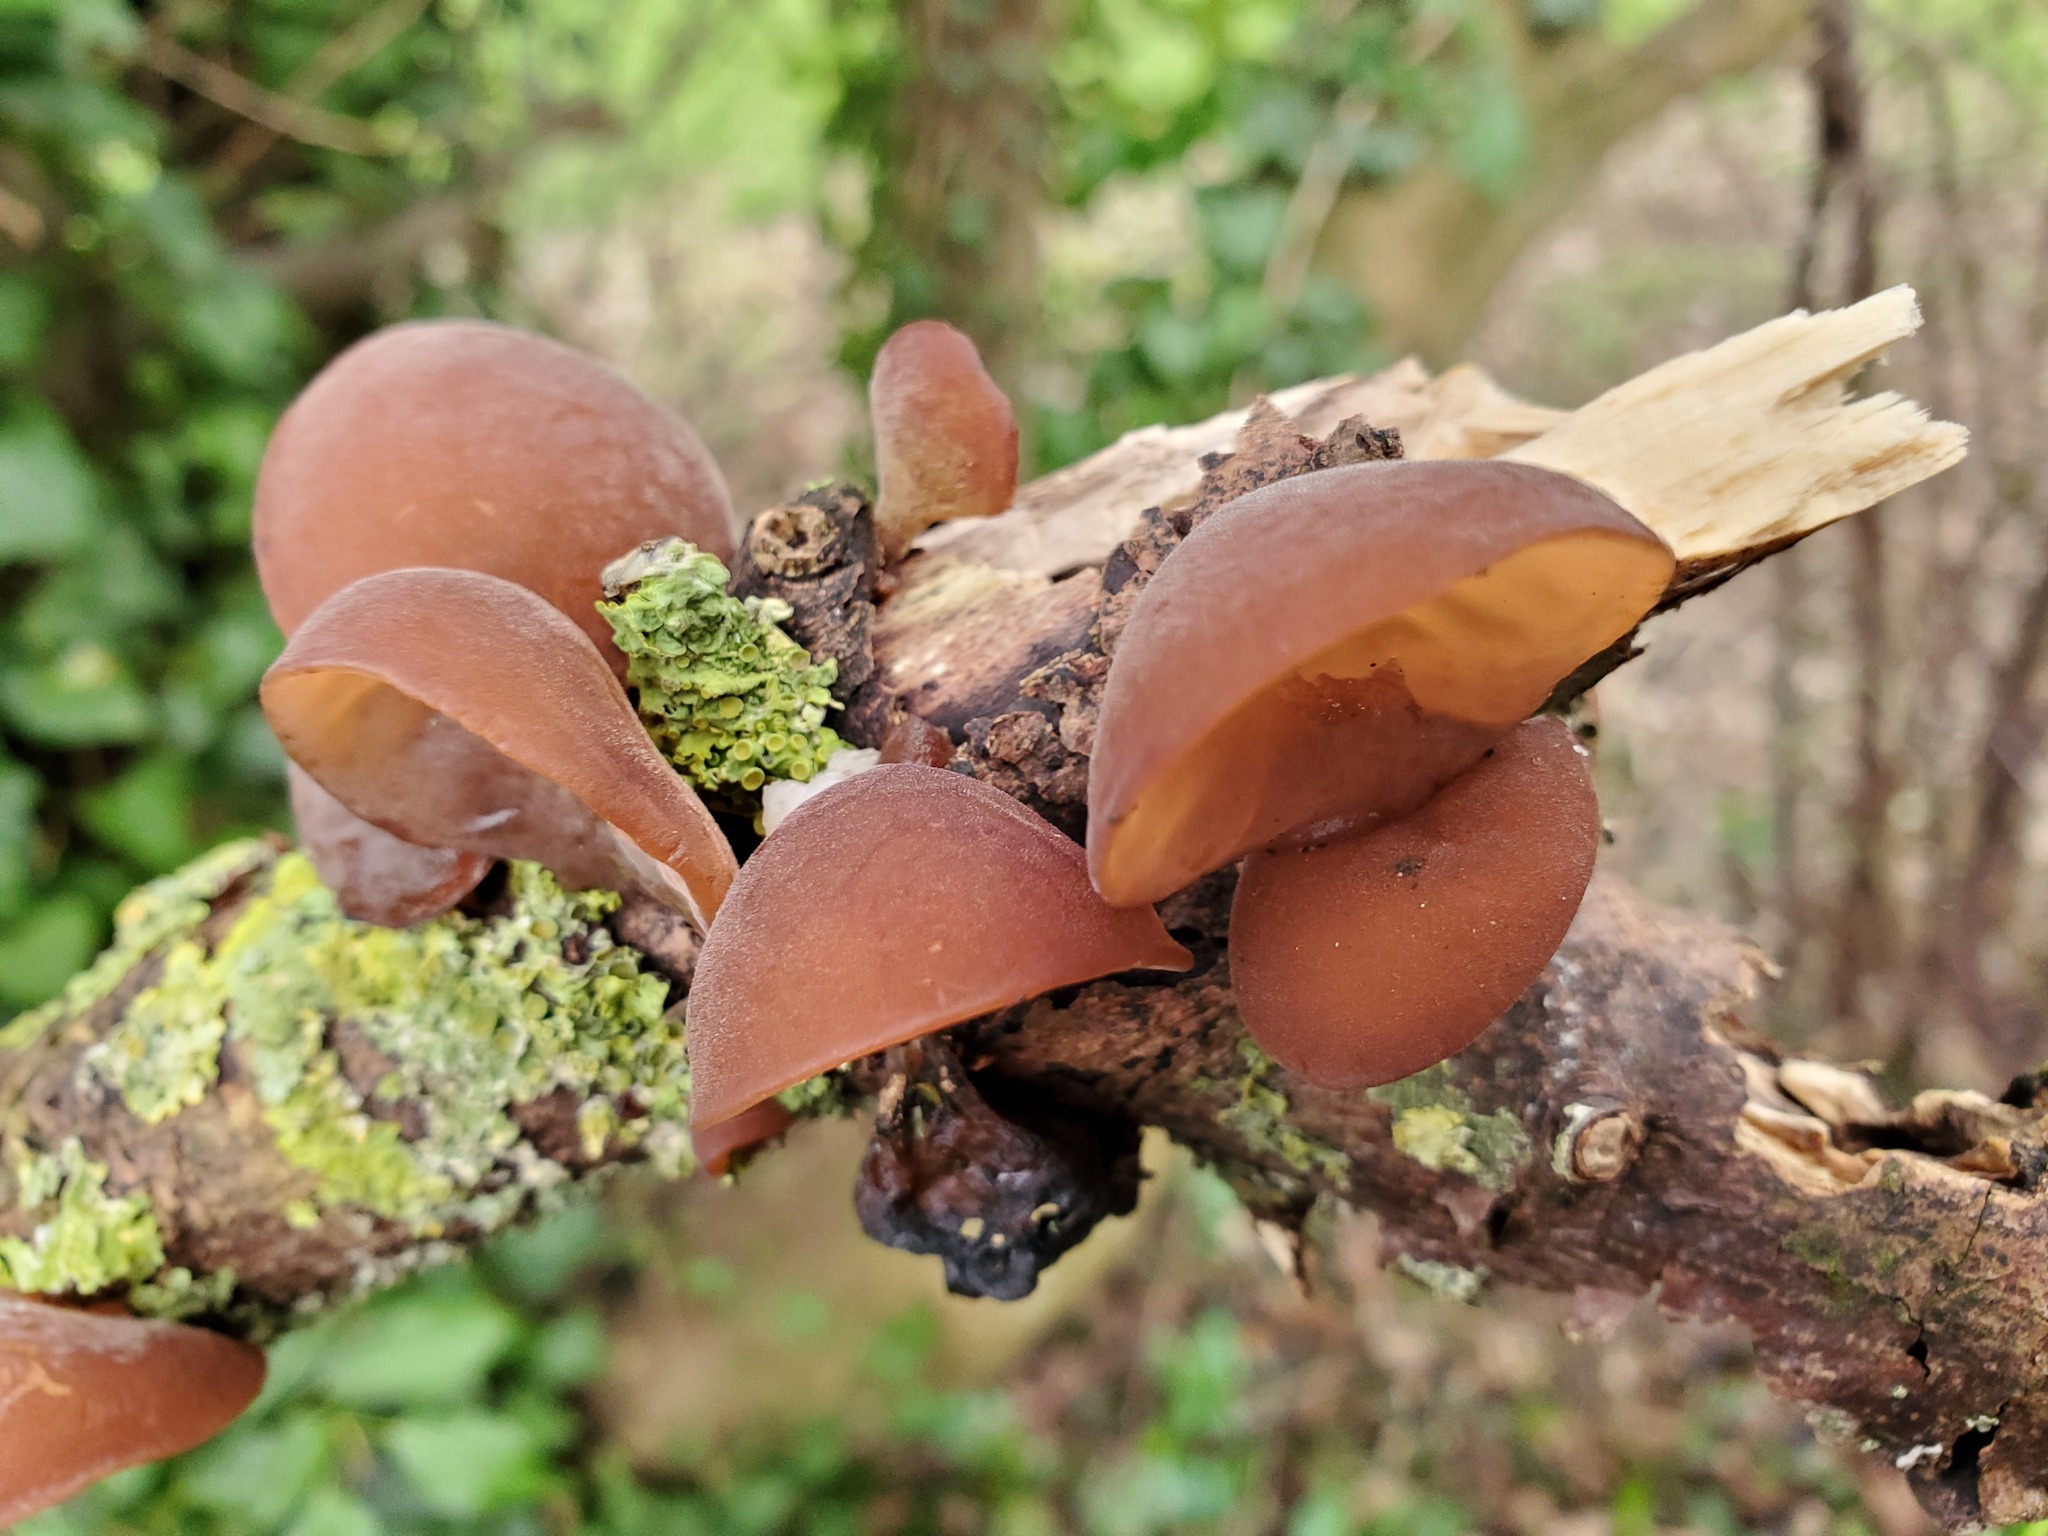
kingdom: Fungi
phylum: Basidiomycota
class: Agaricomycetes
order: Auriculariales
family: Auriculariaceae
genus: Auricularia
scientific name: Auricularia auricula-judae
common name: Jelly ear
